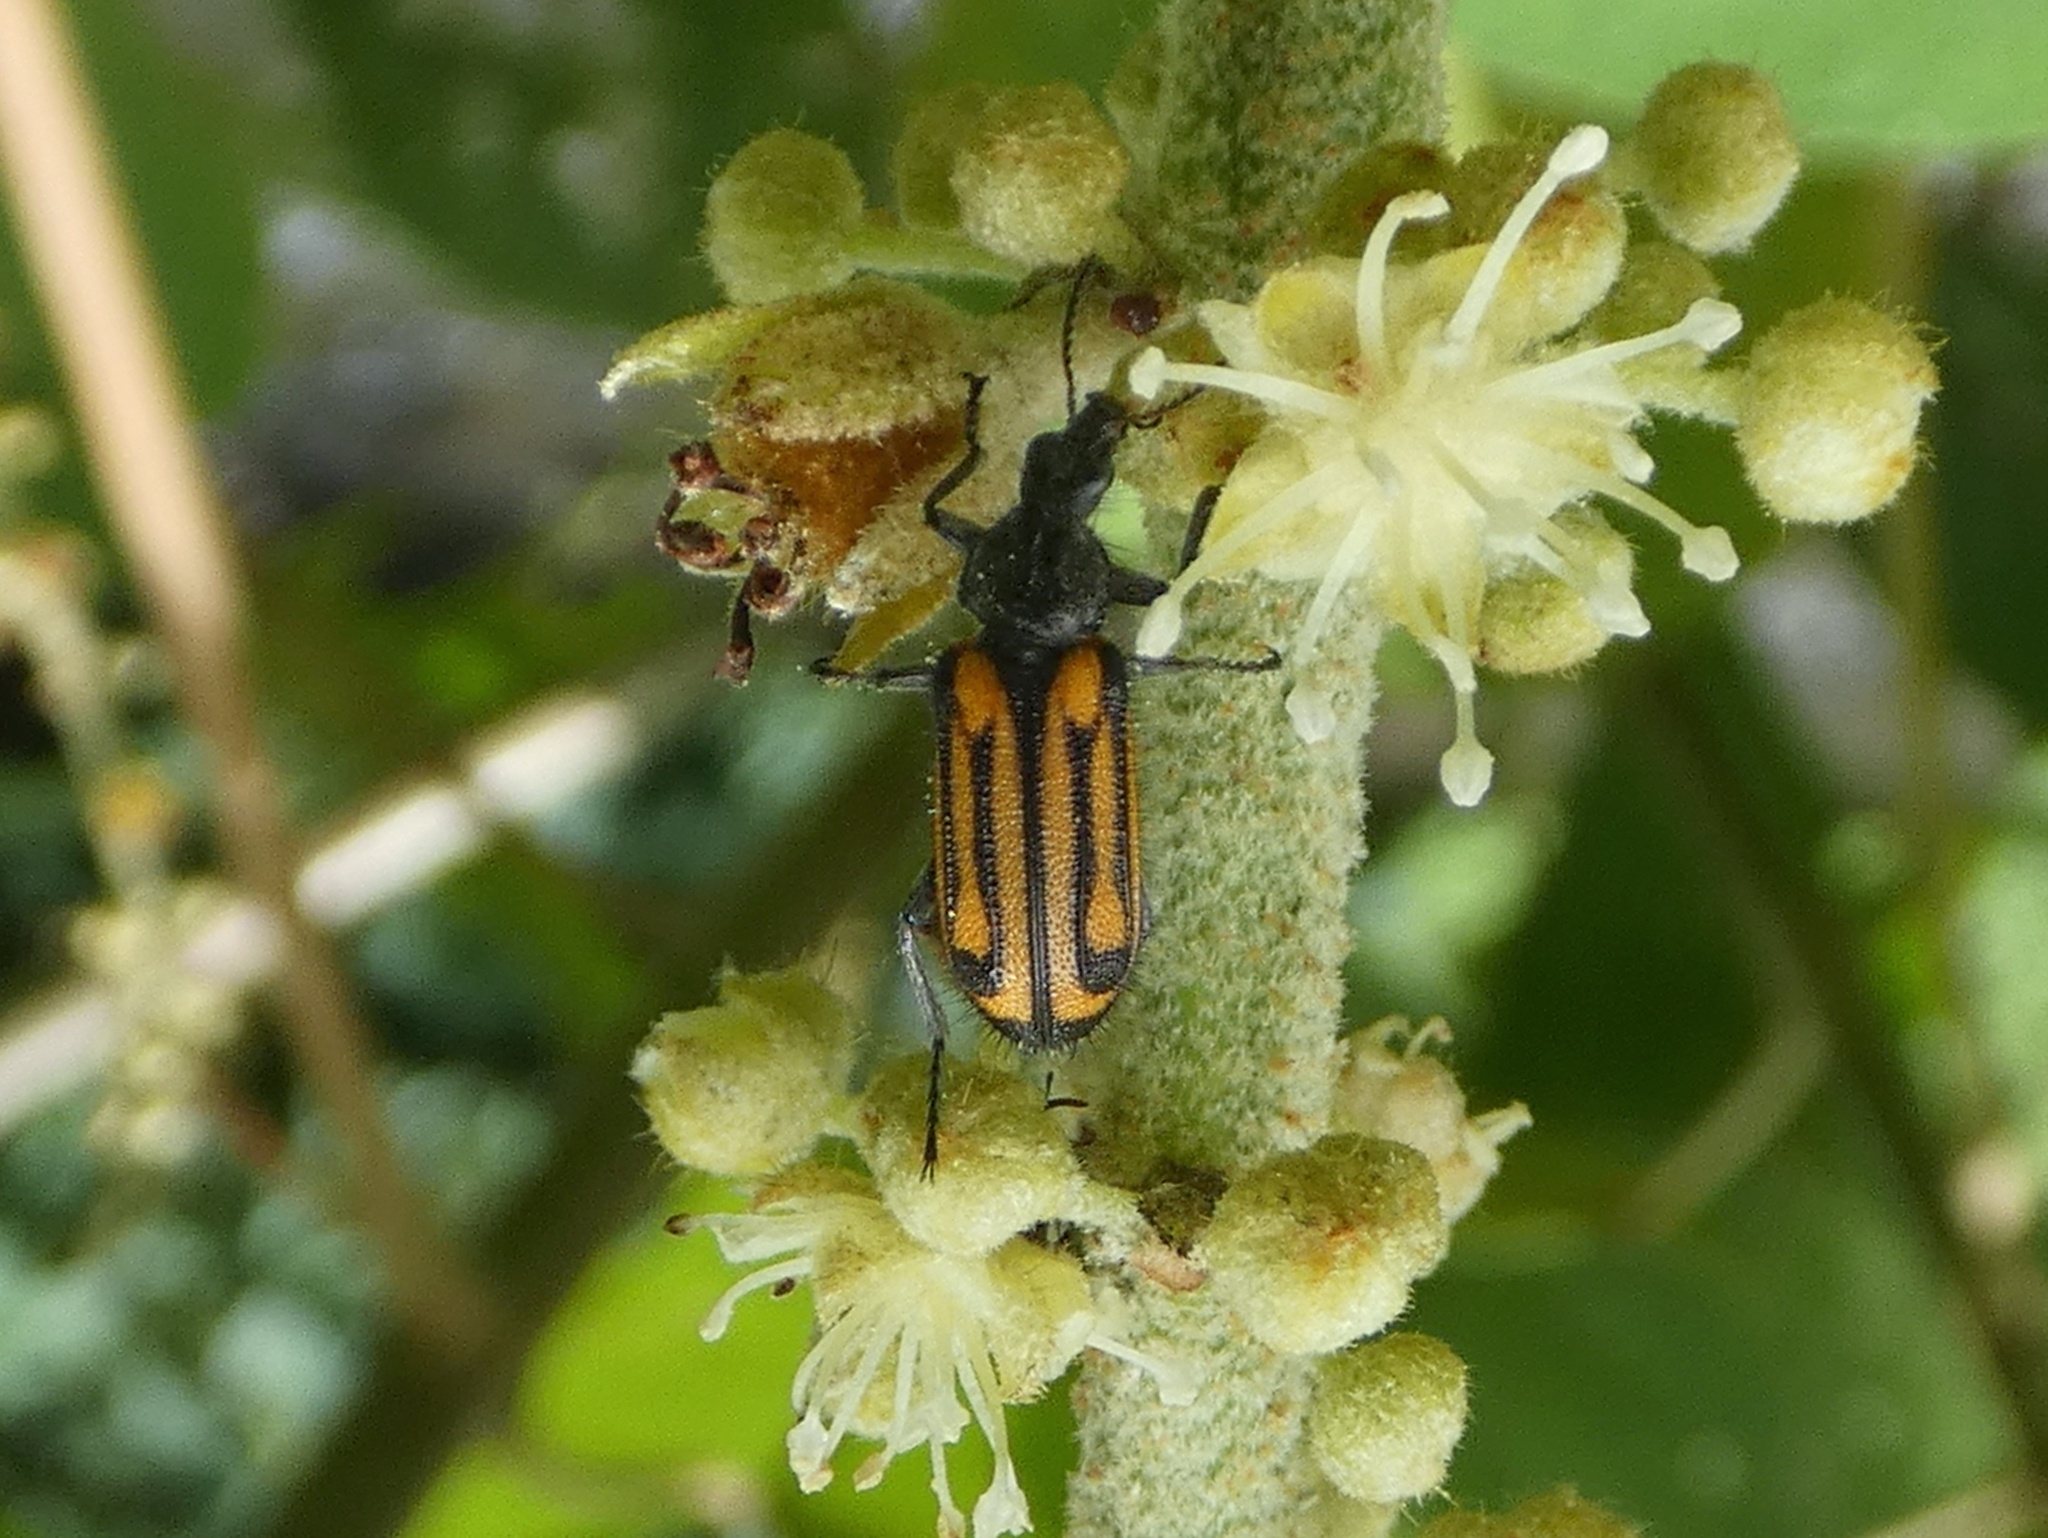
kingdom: Animalia
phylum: Arthropoda
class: Insecta
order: Coleoptera
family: Melyridae
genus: Astylus
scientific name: Astylus
